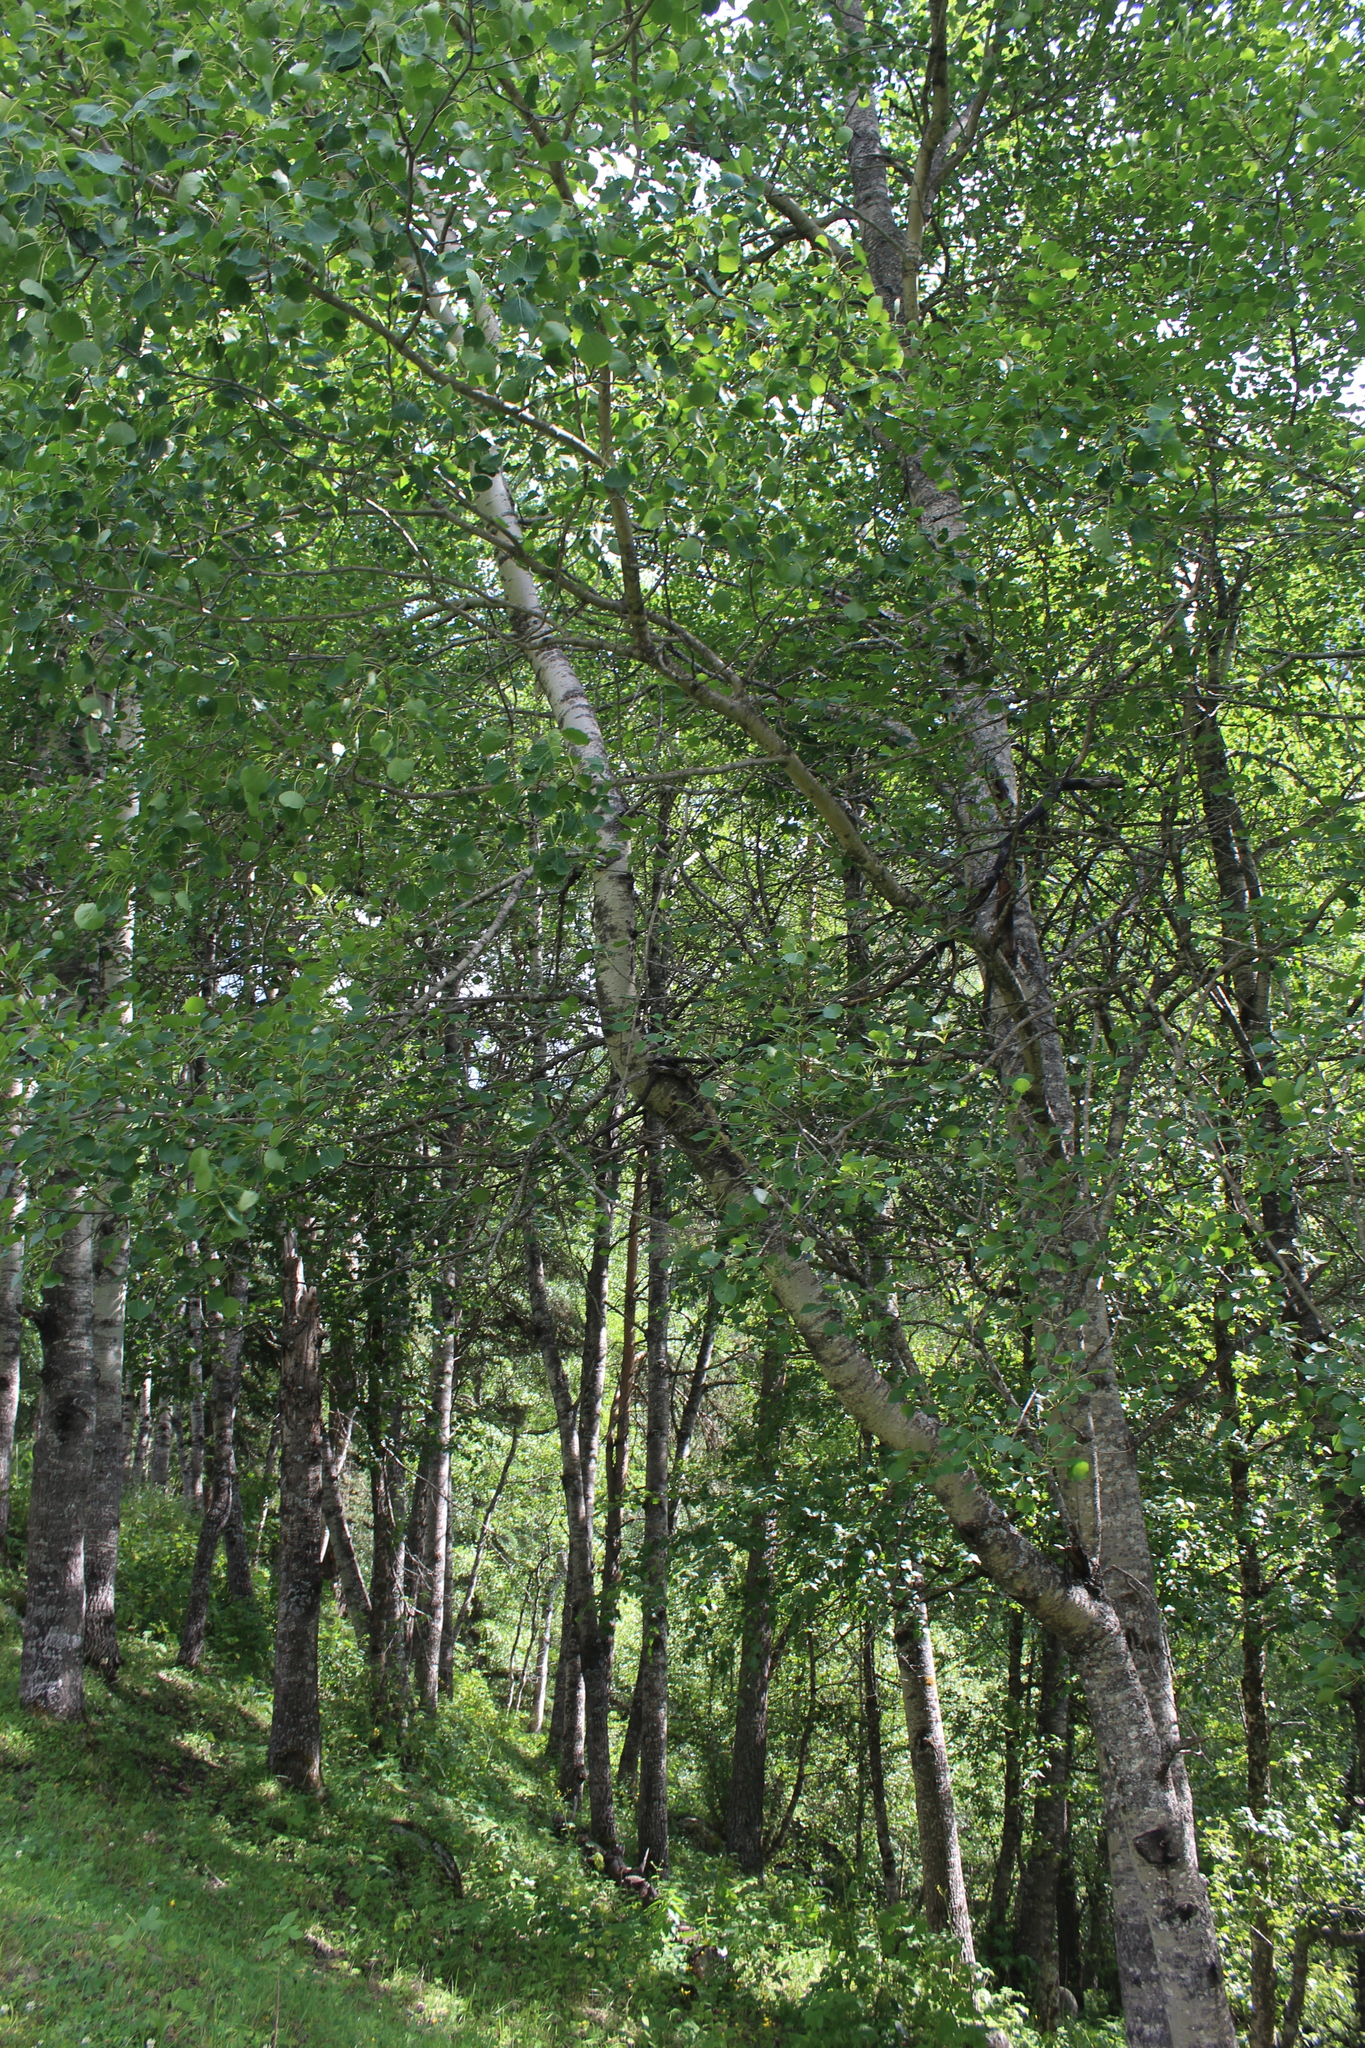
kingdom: Plantae
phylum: Tracheophyta
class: Magnoliopsida
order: Malpighiales
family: Salicaceae
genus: Populus
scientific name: Populus tremula
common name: European aspen
